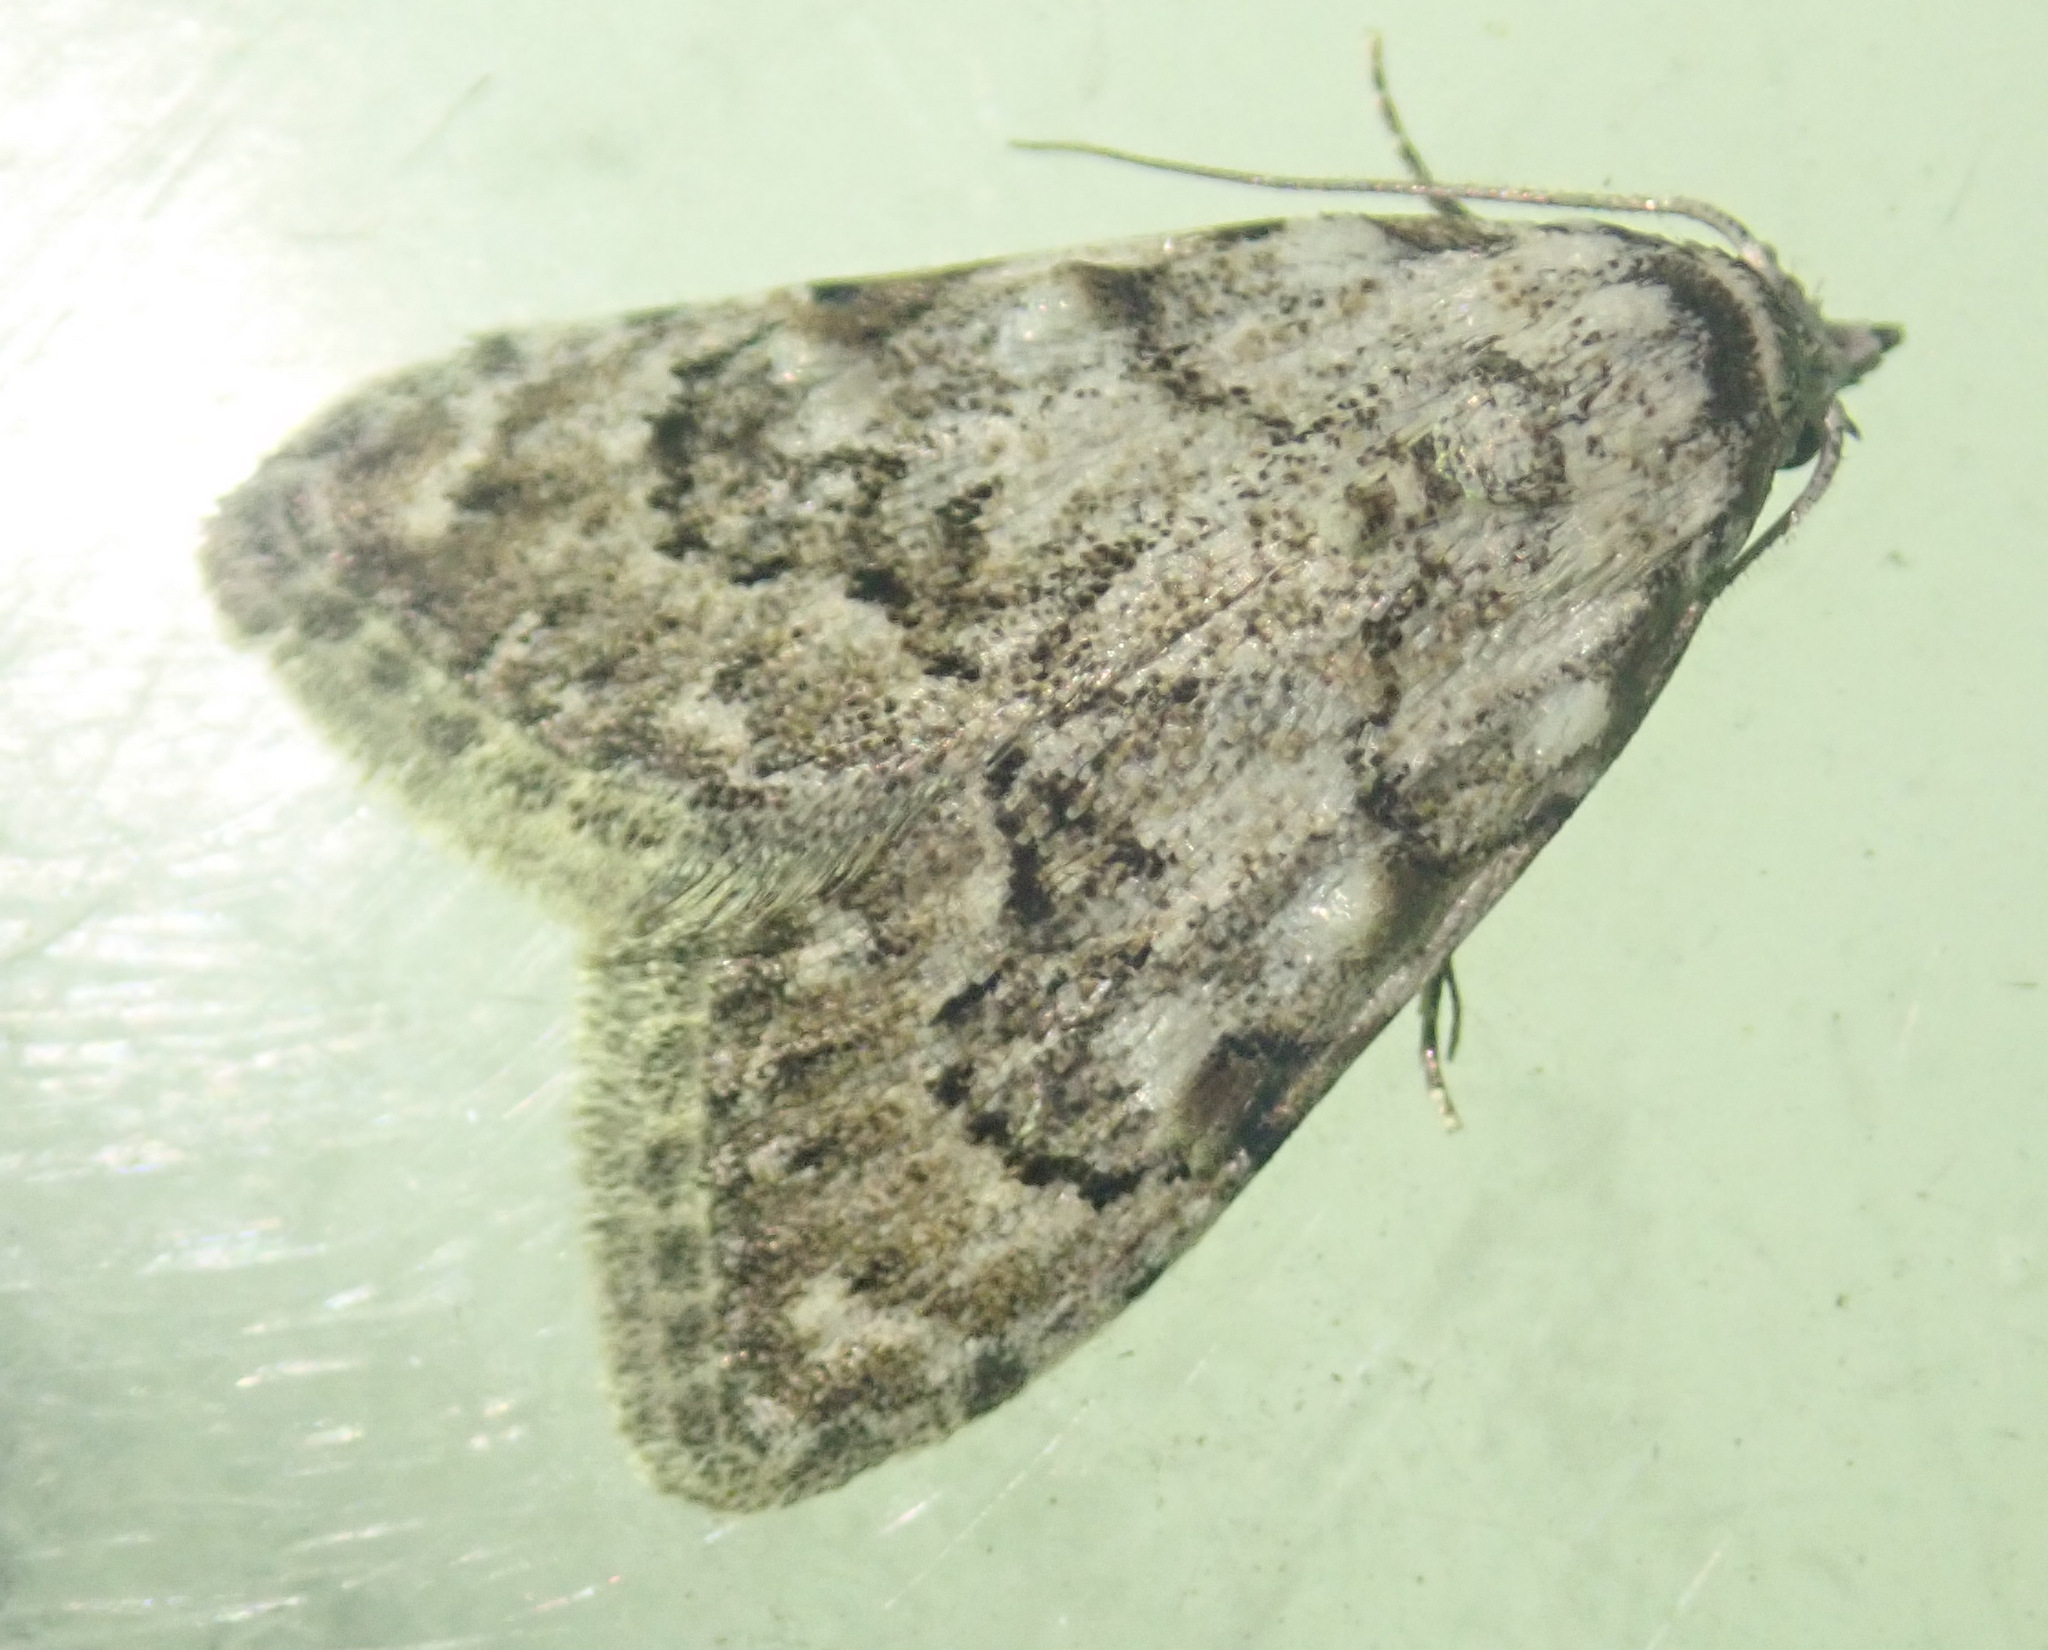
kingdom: Animalia
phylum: Arthropoda
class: Insecta
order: Lepidoptera
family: Nolidae
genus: Nola
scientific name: Nola confusalis
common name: Least black arches
